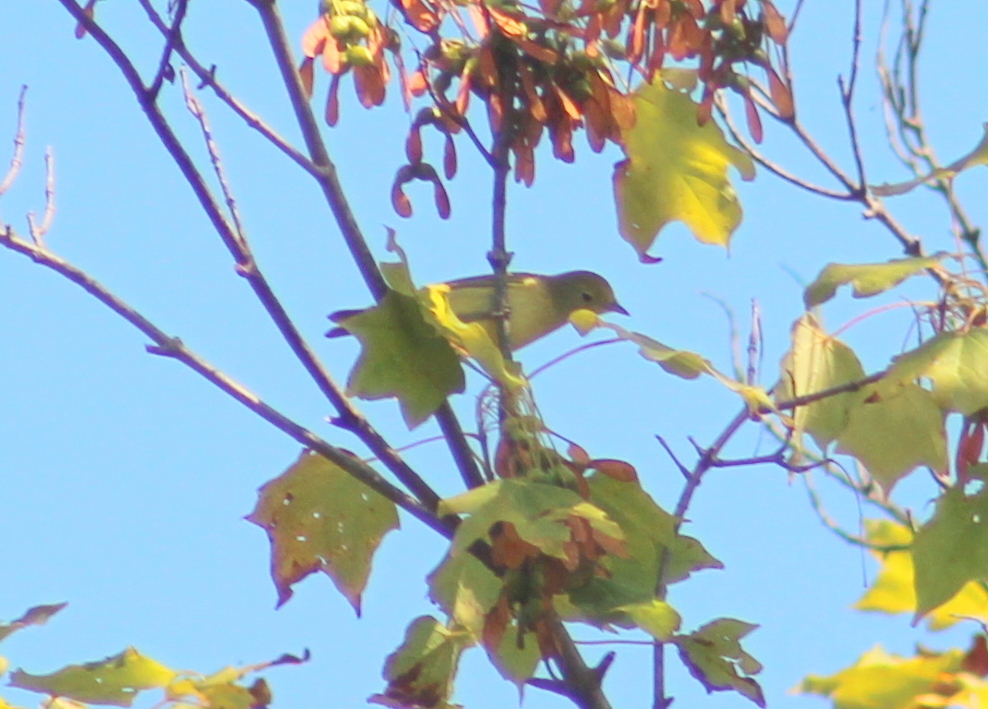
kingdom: Animalia
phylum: Chordata
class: Aves
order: Passeriformes
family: Parulidae
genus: Setophaga
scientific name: Setophaga petechia
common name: Yellow warbler
